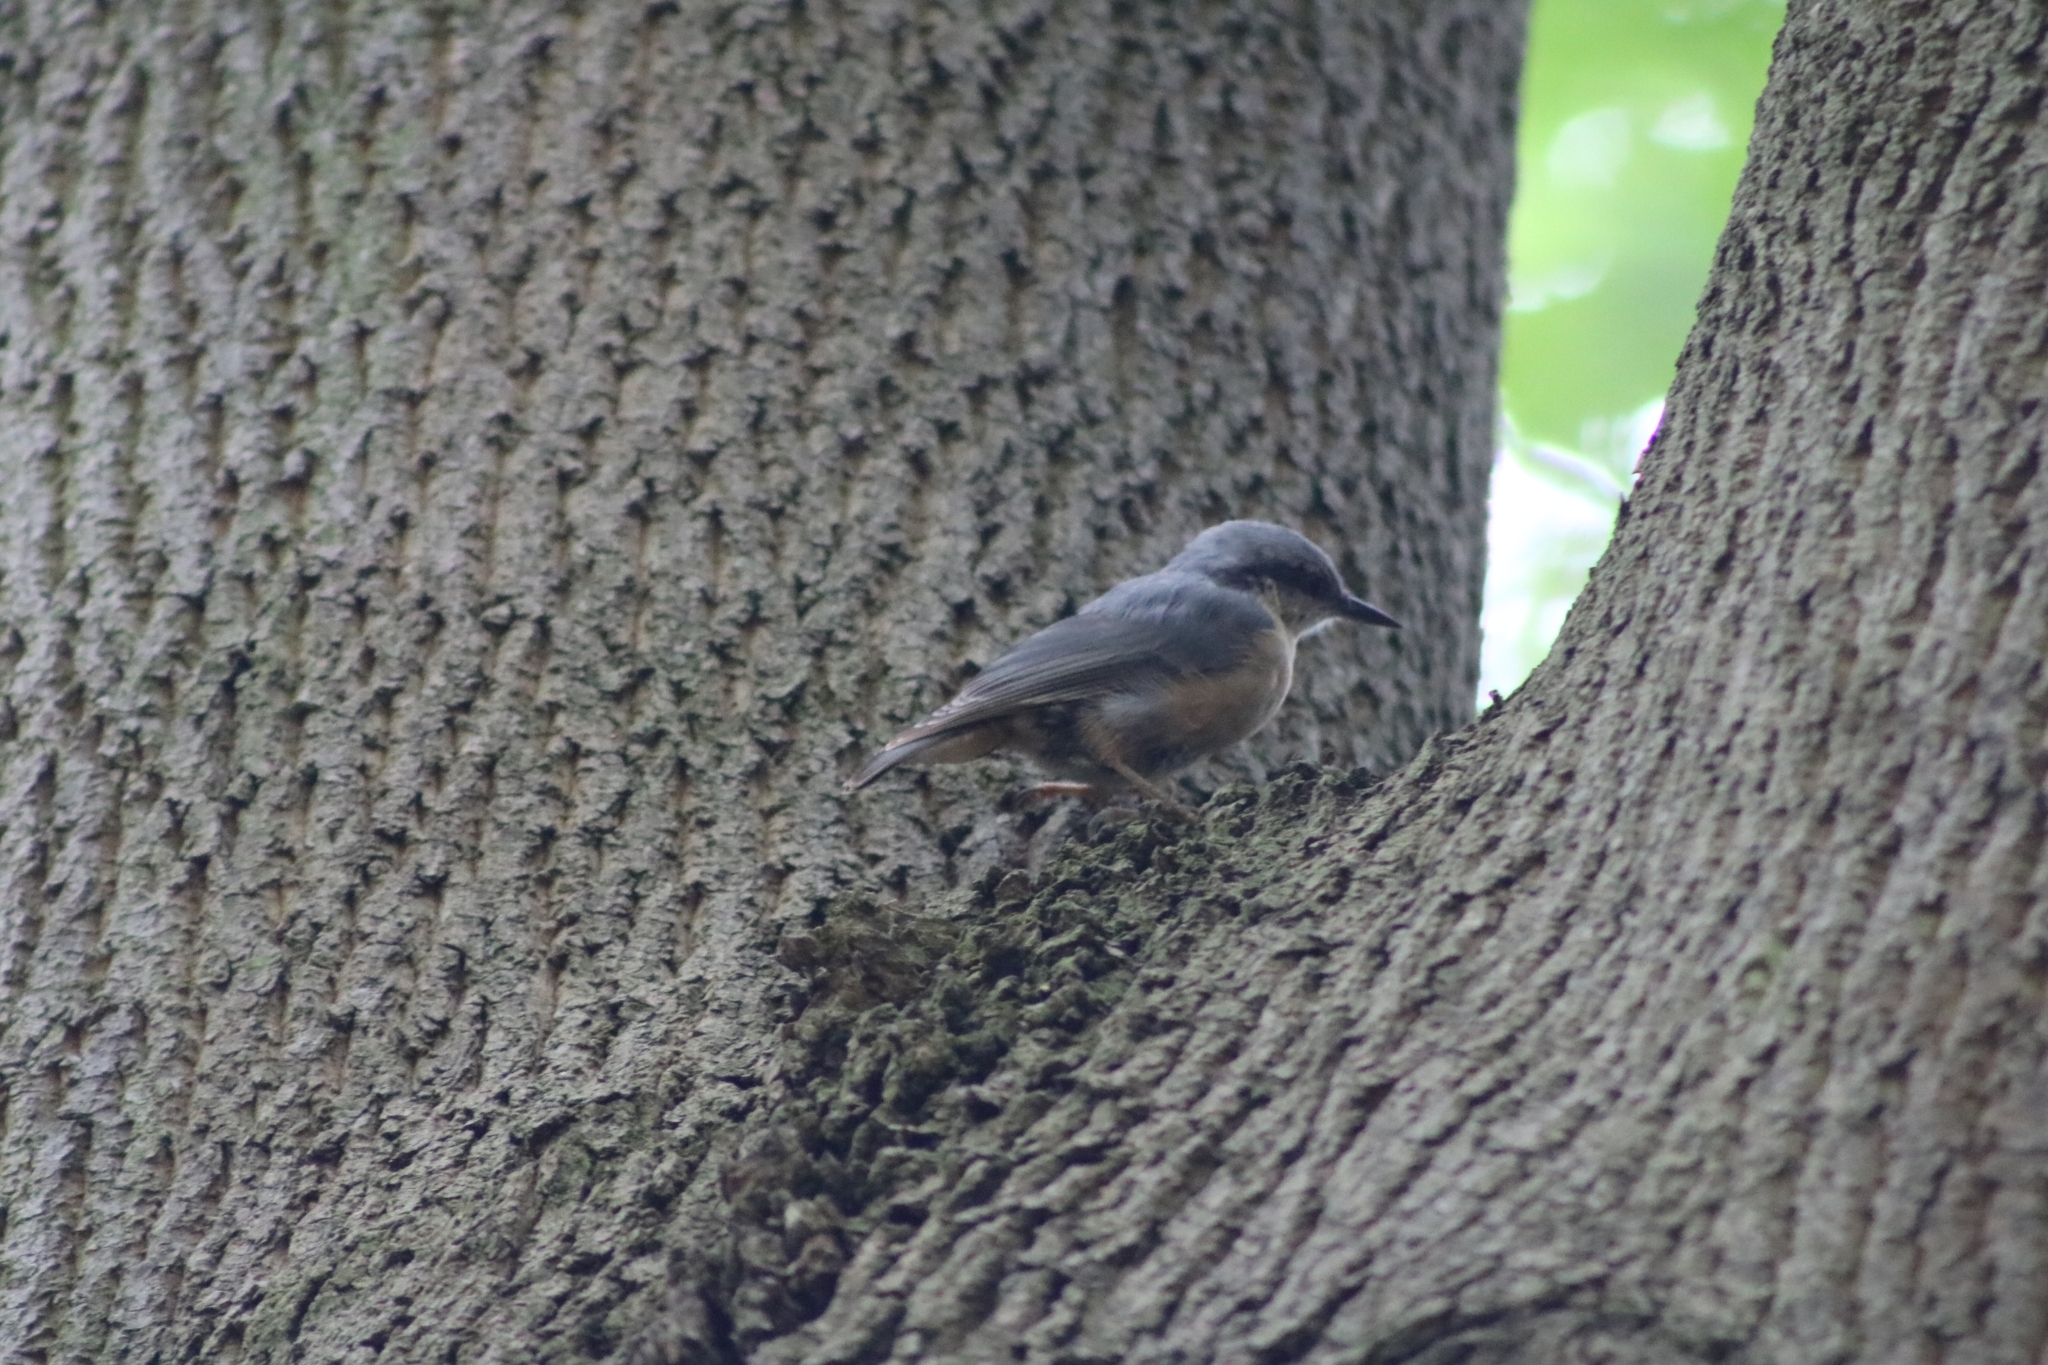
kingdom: Animalia
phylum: Chordata
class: Aves
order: Passeriformes
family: Sittidae
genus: Sitta
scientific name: Sitta europaea
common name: Eurasian nuthatch
